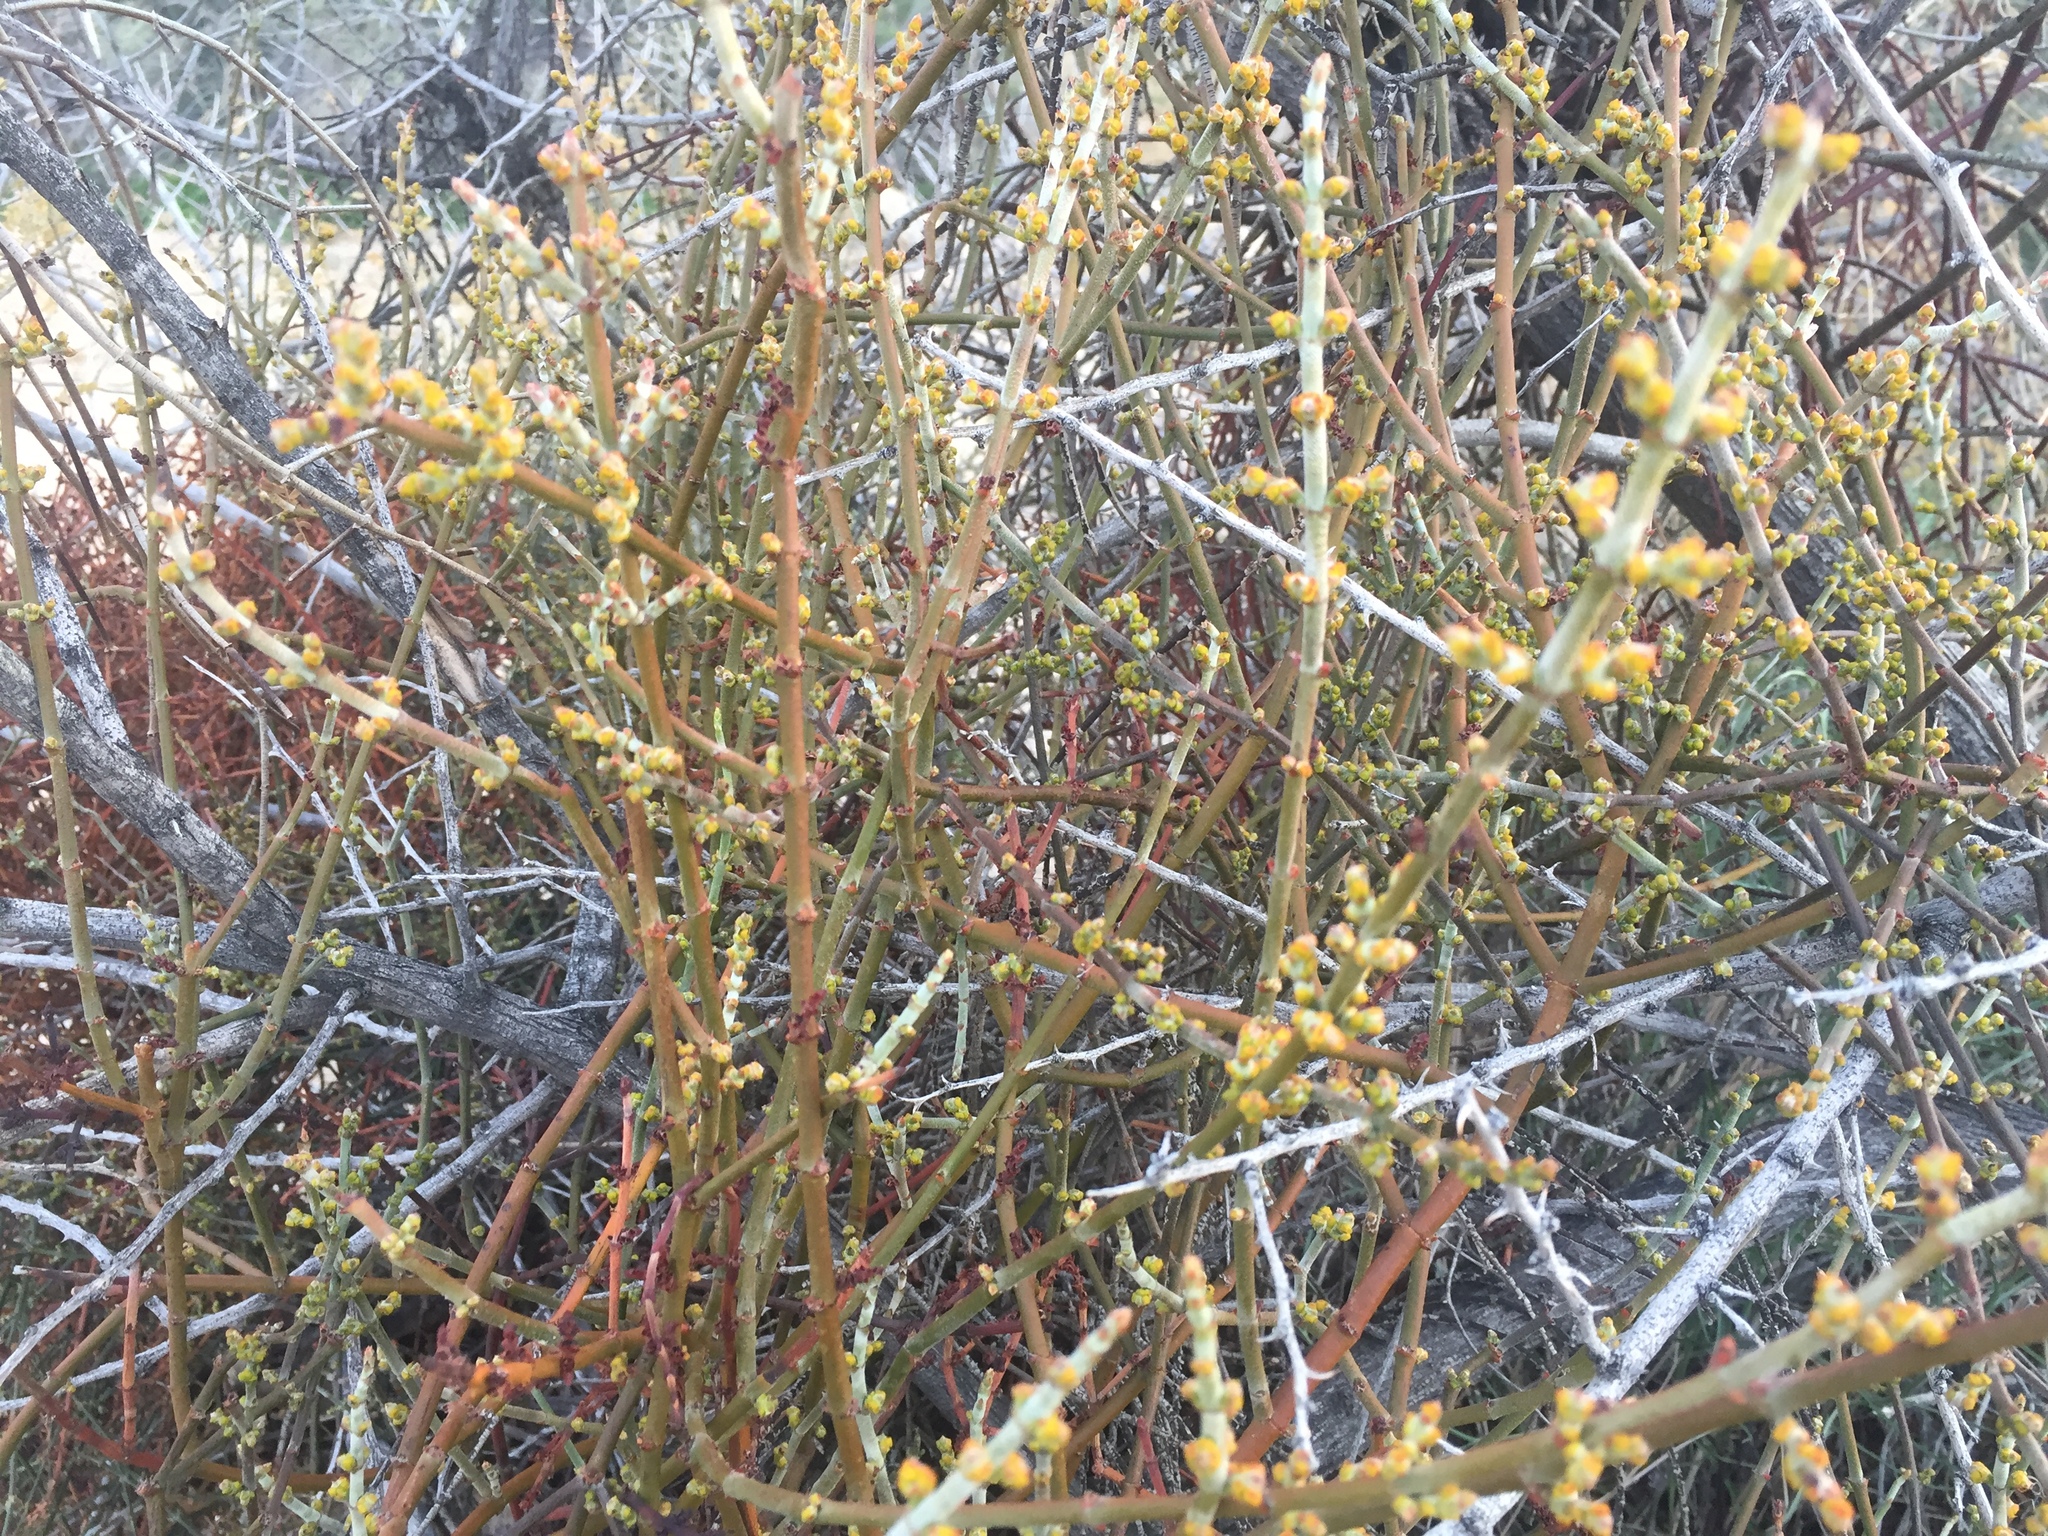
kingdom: Plantae
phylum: Tracheophyta
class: Magnoliopsida
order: Santalales
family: Viscaceae
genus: Phoradendron
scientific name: Phoradendron californicum
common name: Acacia mistletoe
